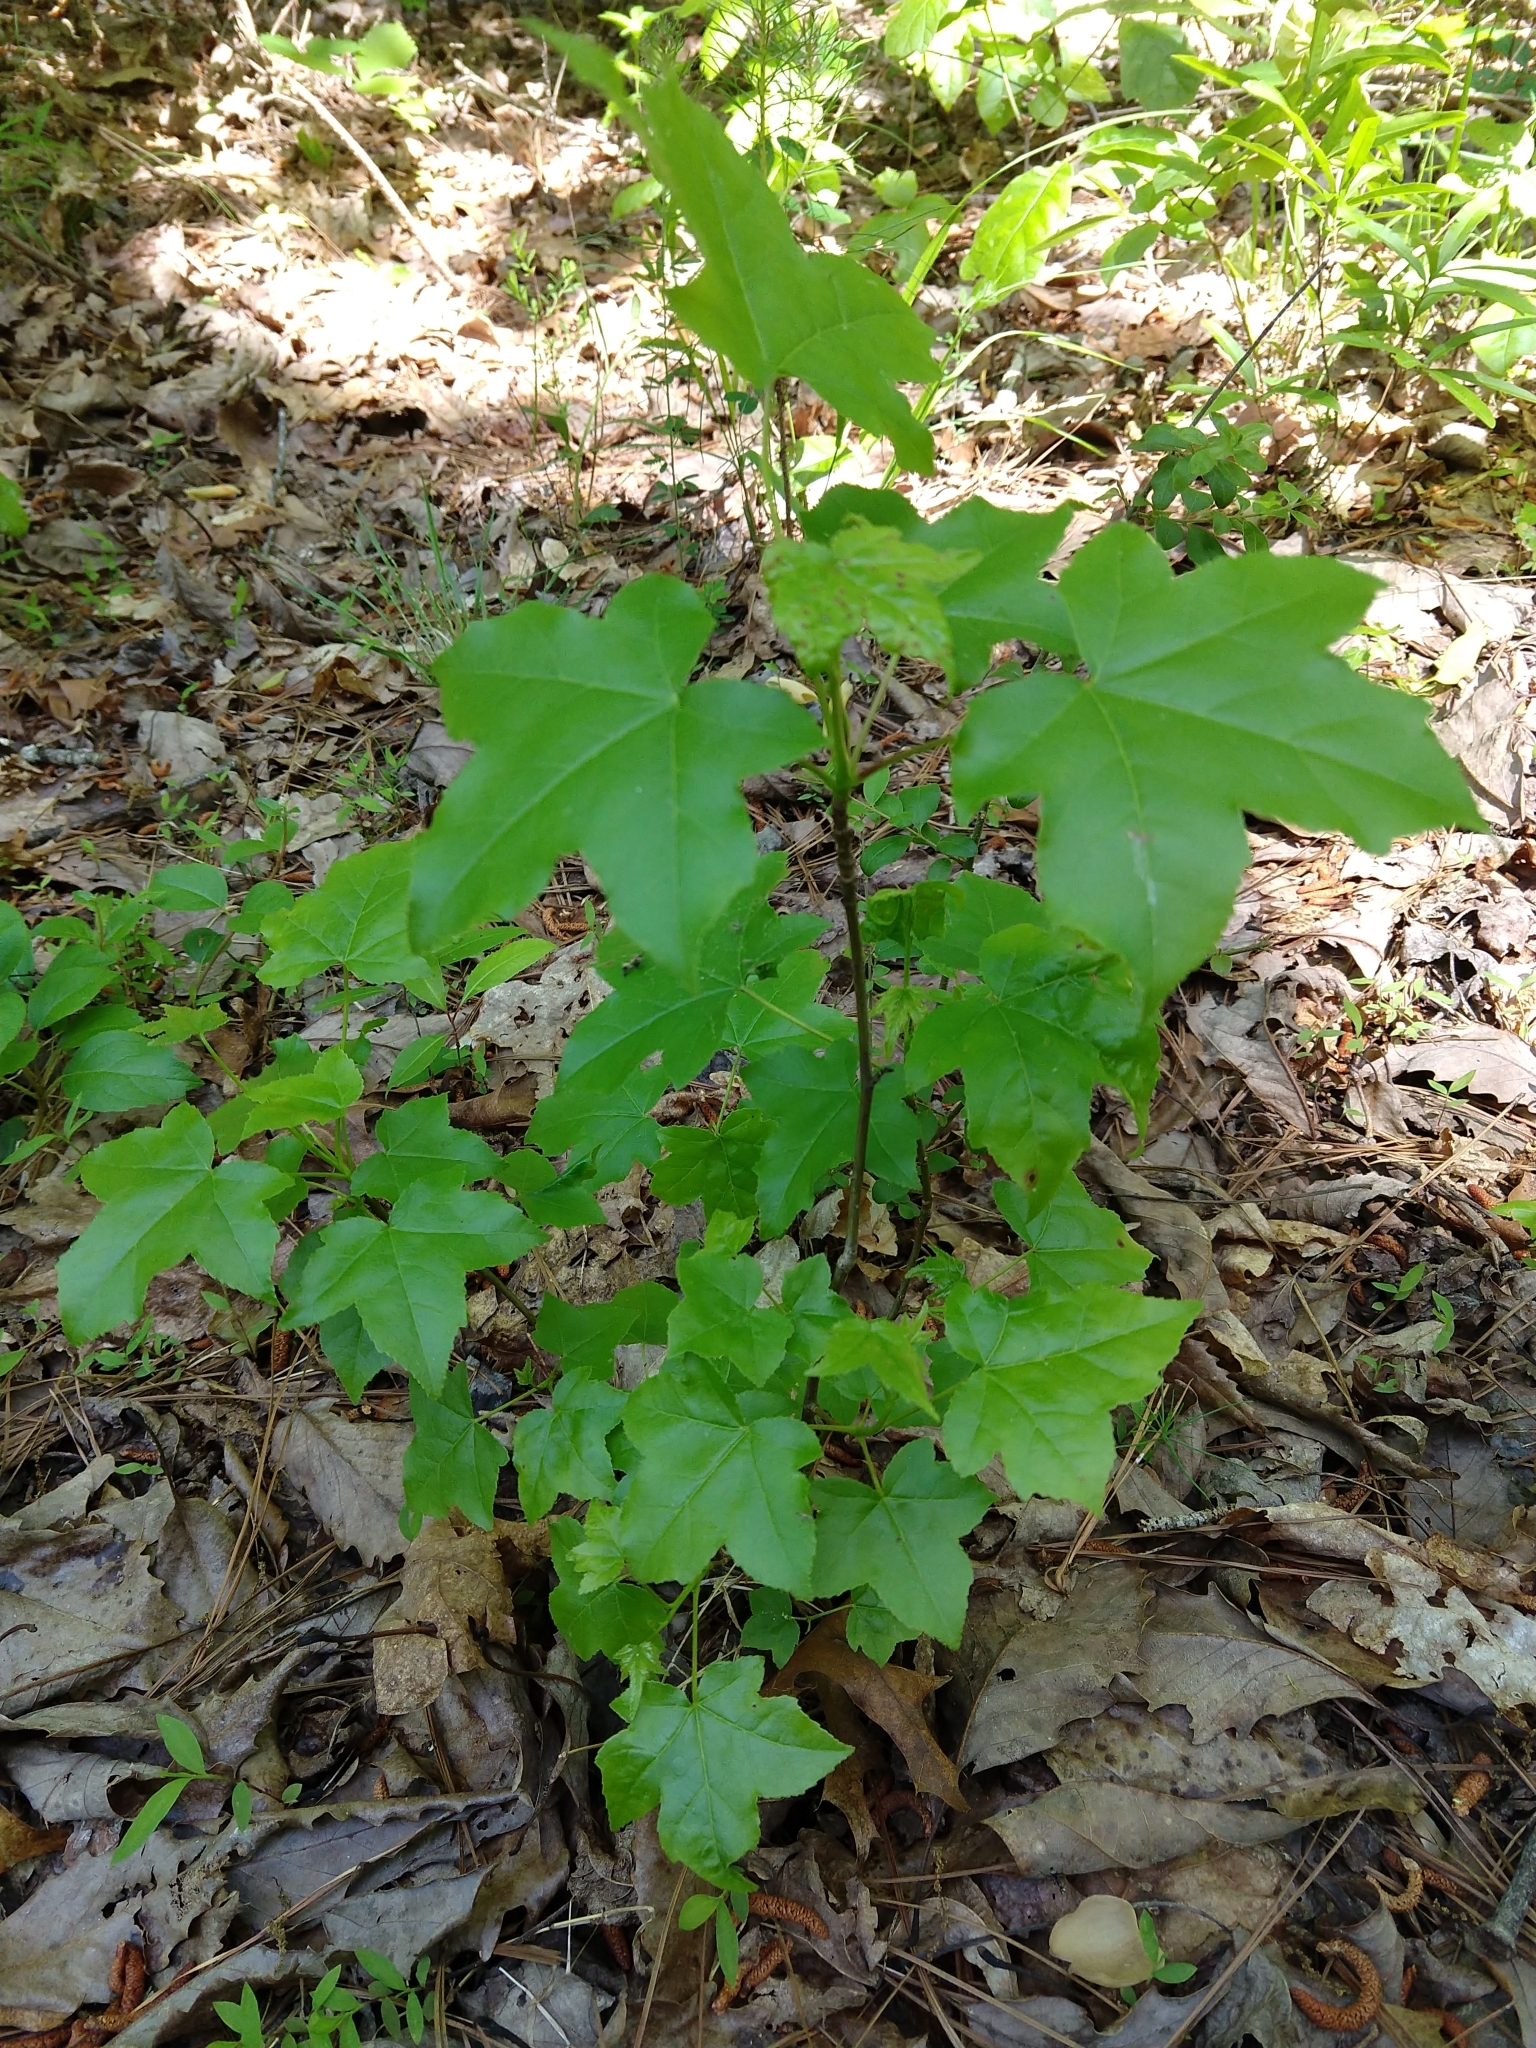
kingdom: Plantae
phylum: Tracheophyta
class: Magnoliopsida
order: Saxifragales
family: Altingiaceae
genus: Liquidambar
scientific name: Liquidambar styraciflua
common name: Sweet gum
